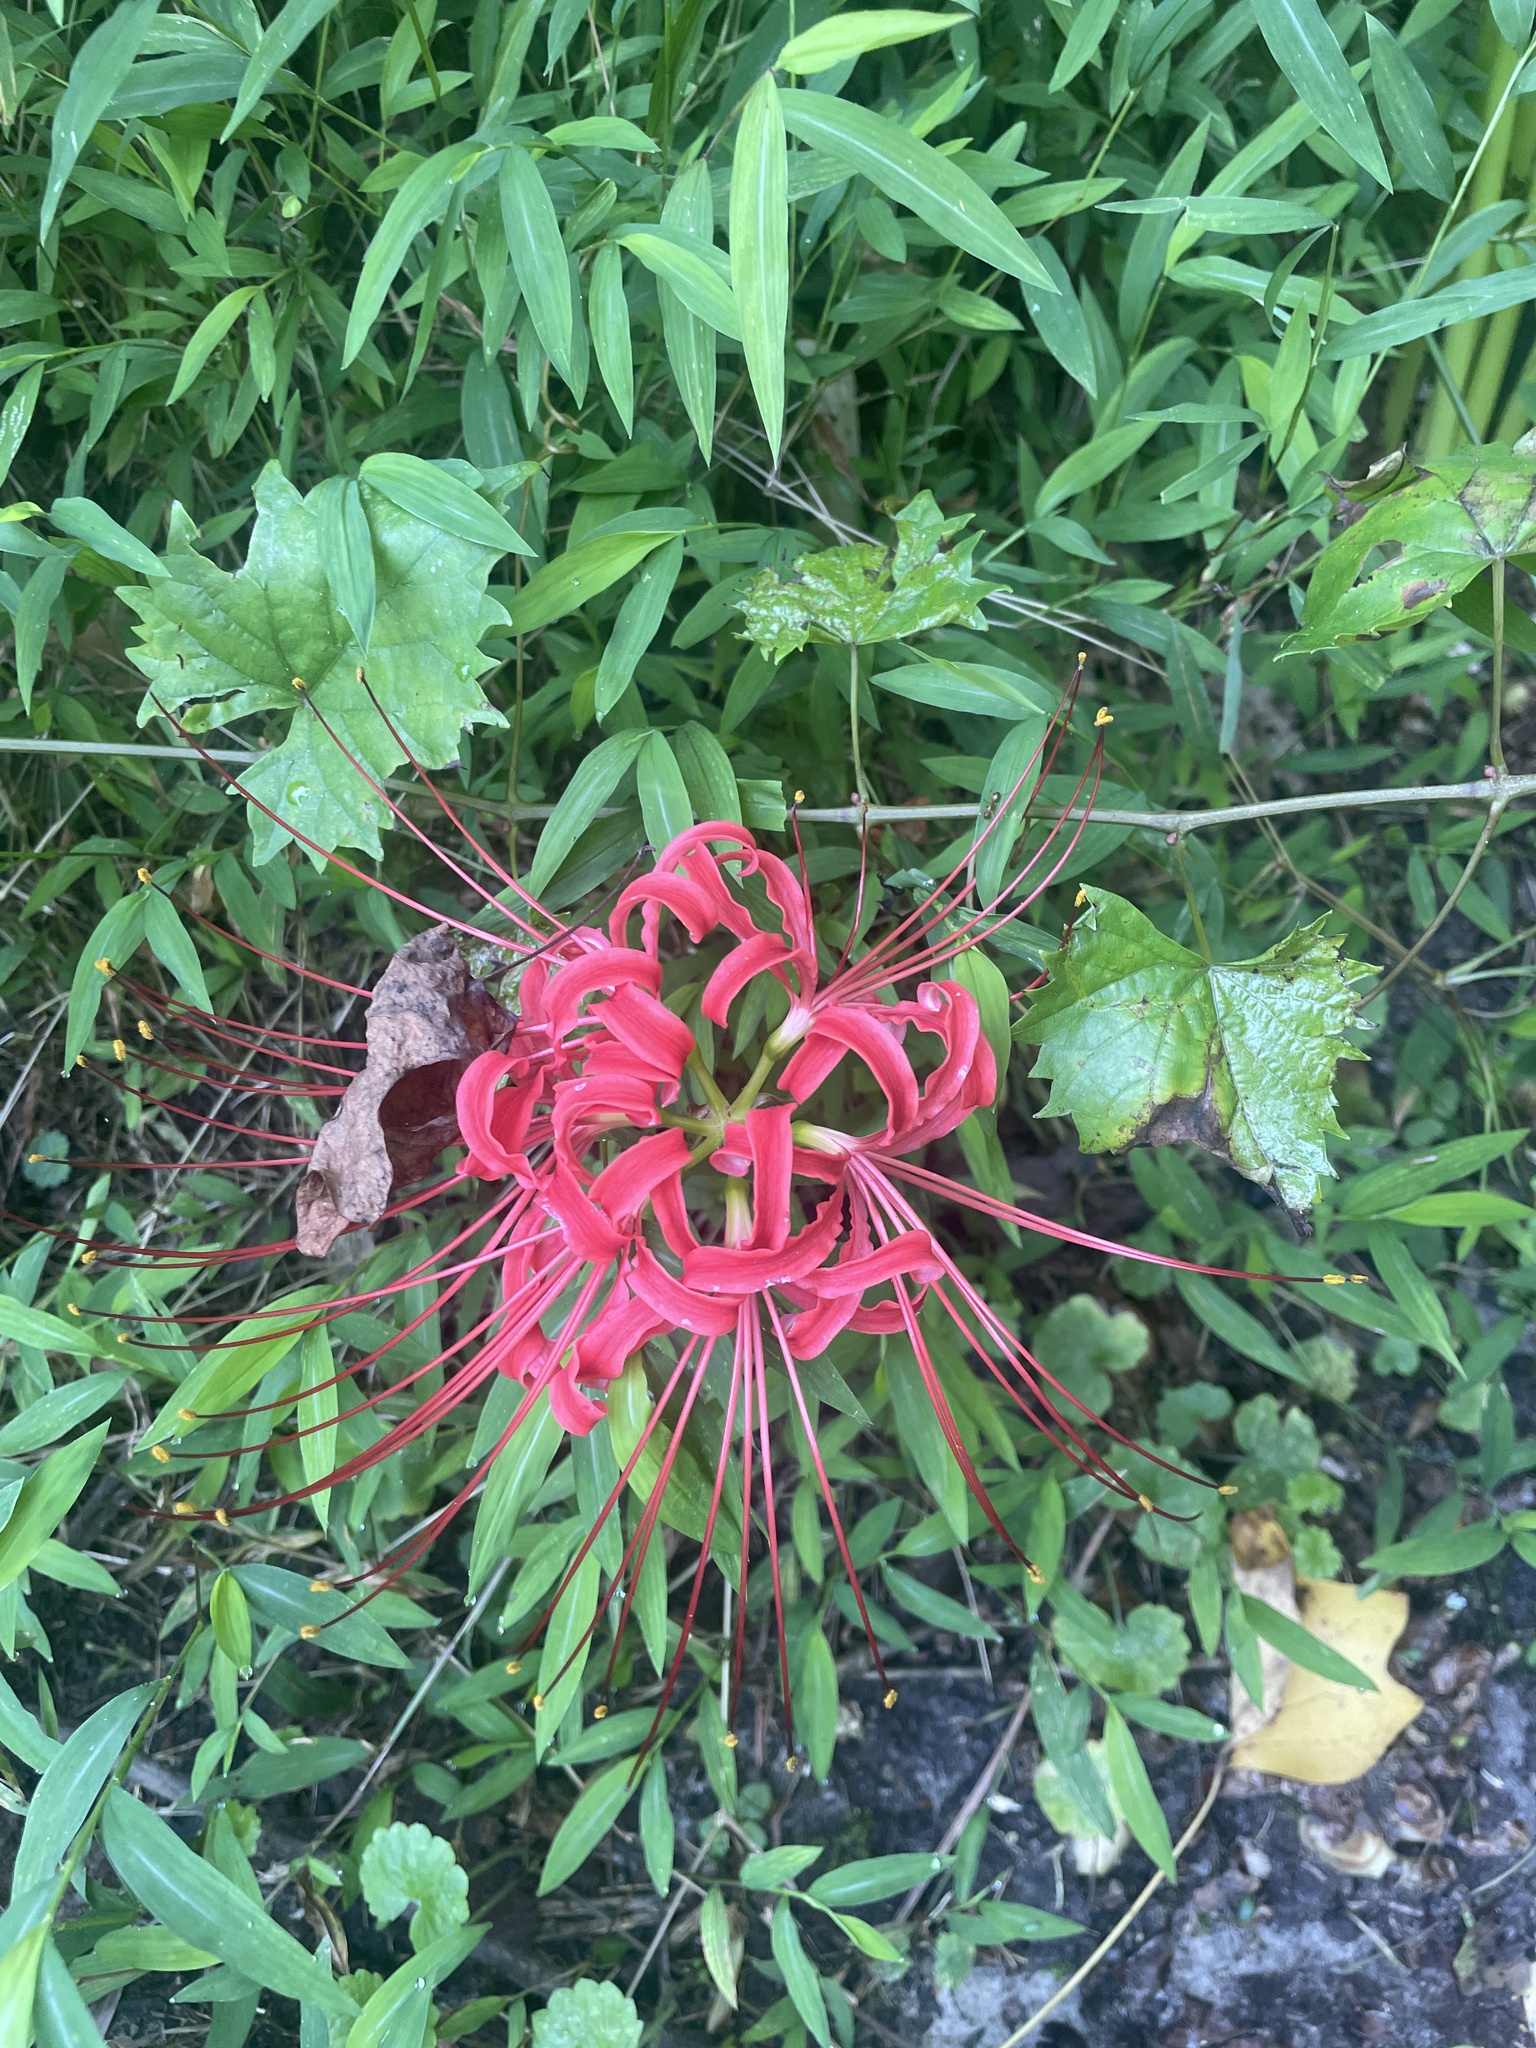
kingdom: Plantae
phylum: Tracheophyta
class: Liliopsida
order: Asparagales
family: Amaryllidaceae
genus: Lycoris
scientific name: Lycoris radiata
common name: Red spider lily
